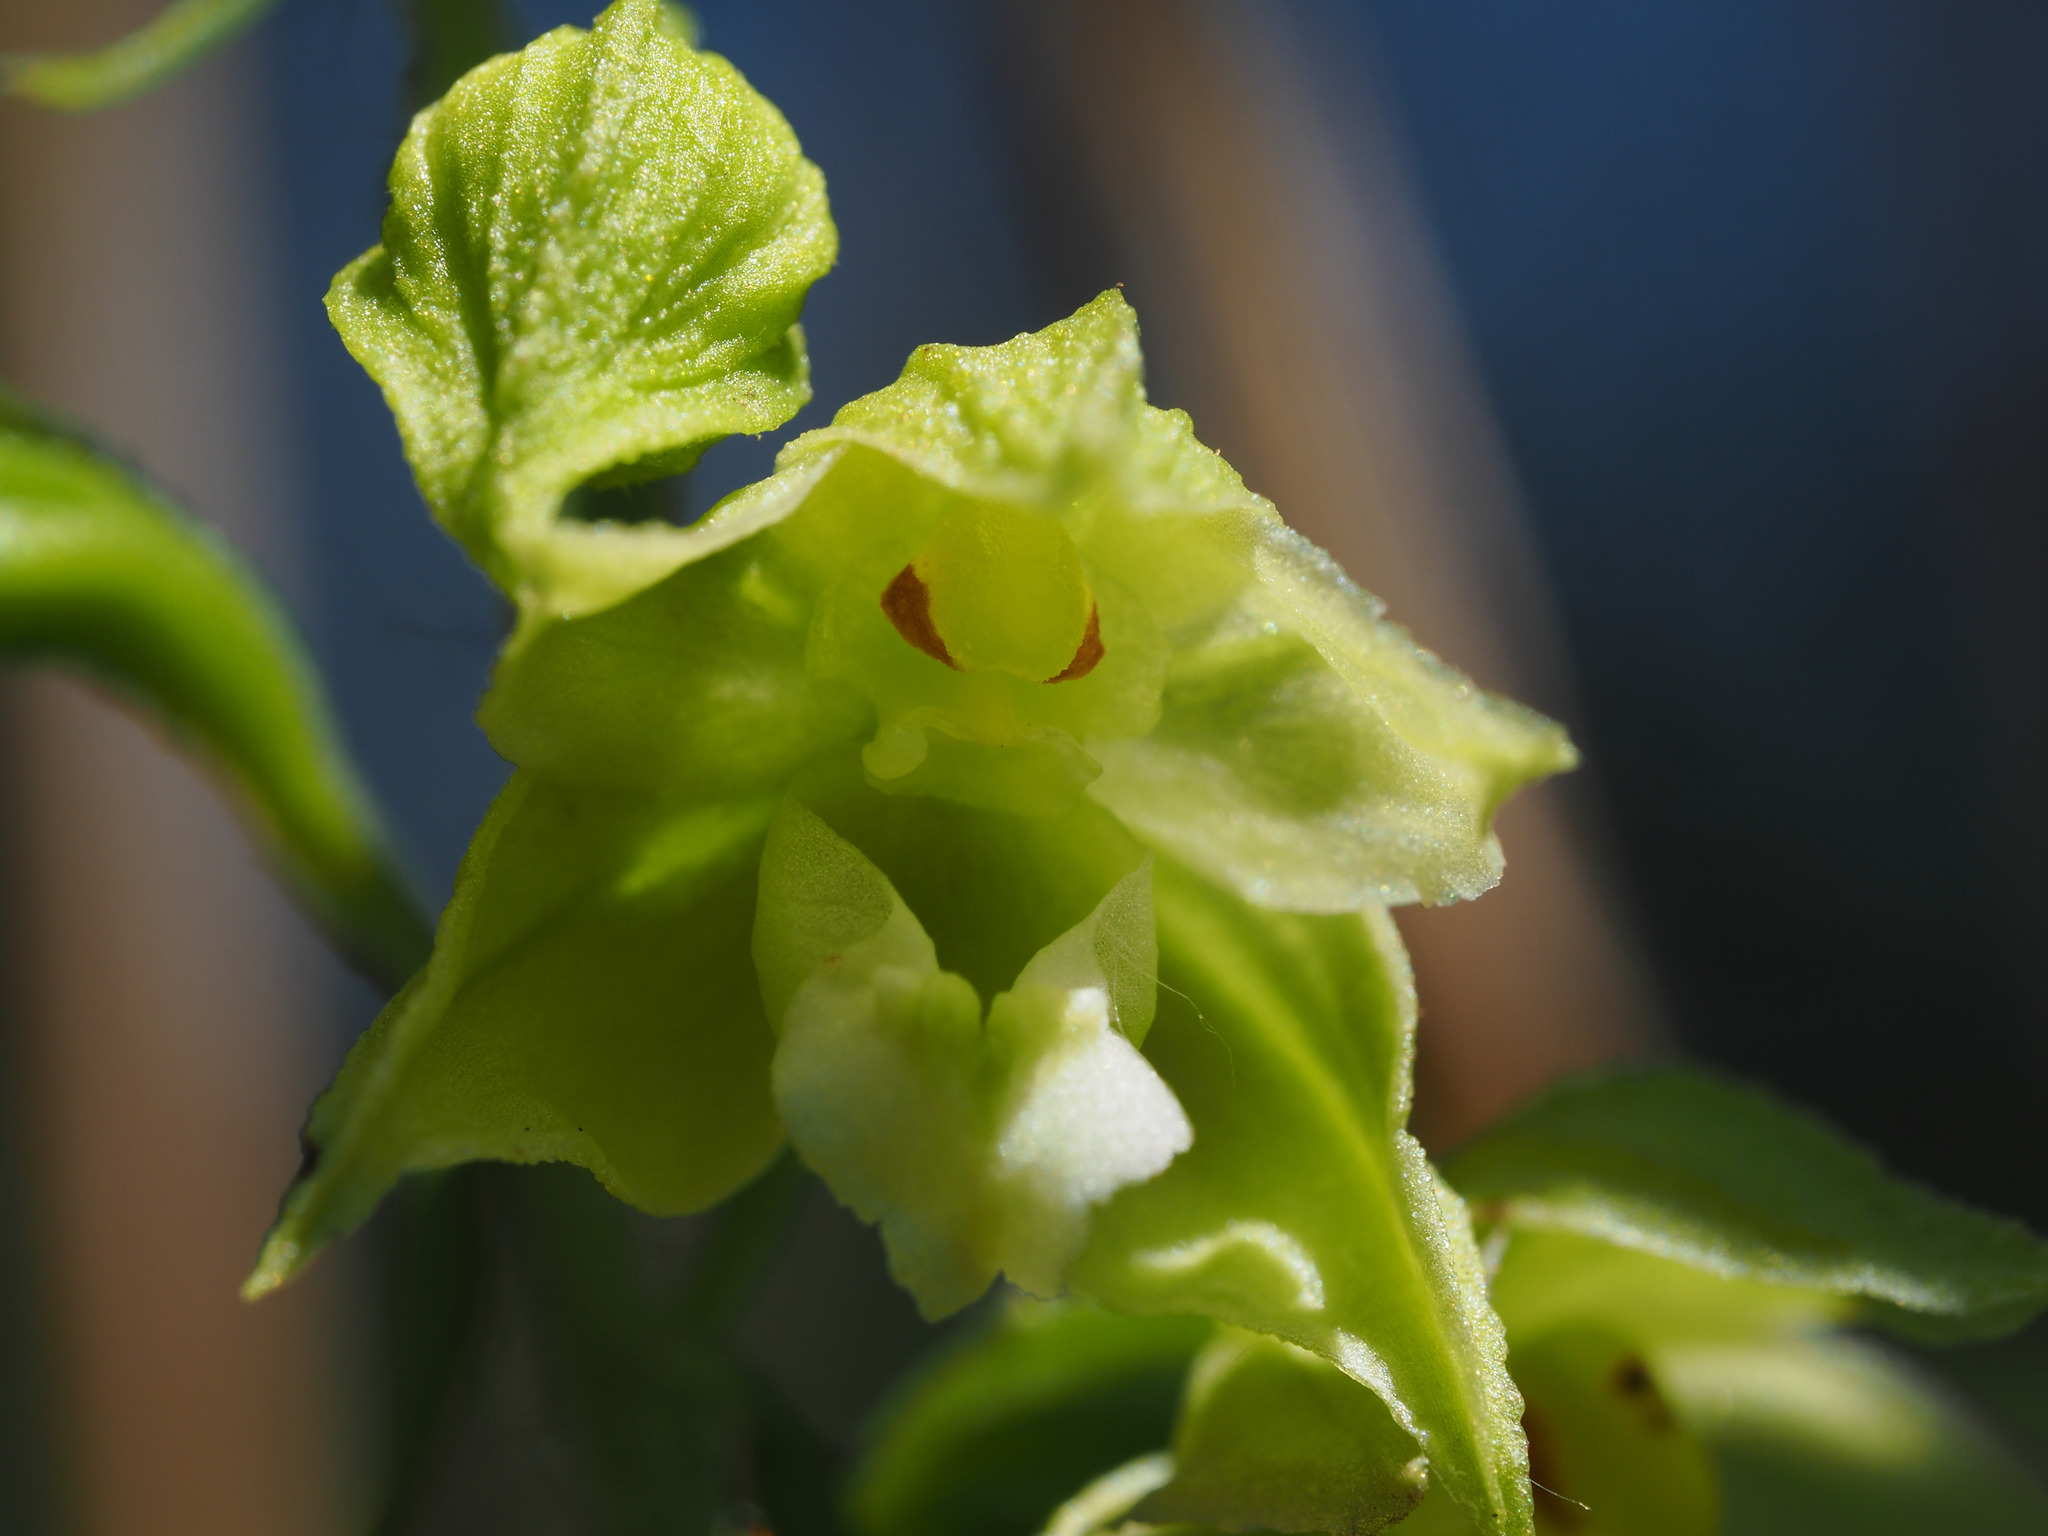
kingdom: Plantae
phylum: Tracheophyta
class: Liliopsida
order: Asparagales
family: Orchidaceae
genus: Epipactis
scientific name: Epipactis bugacensis
